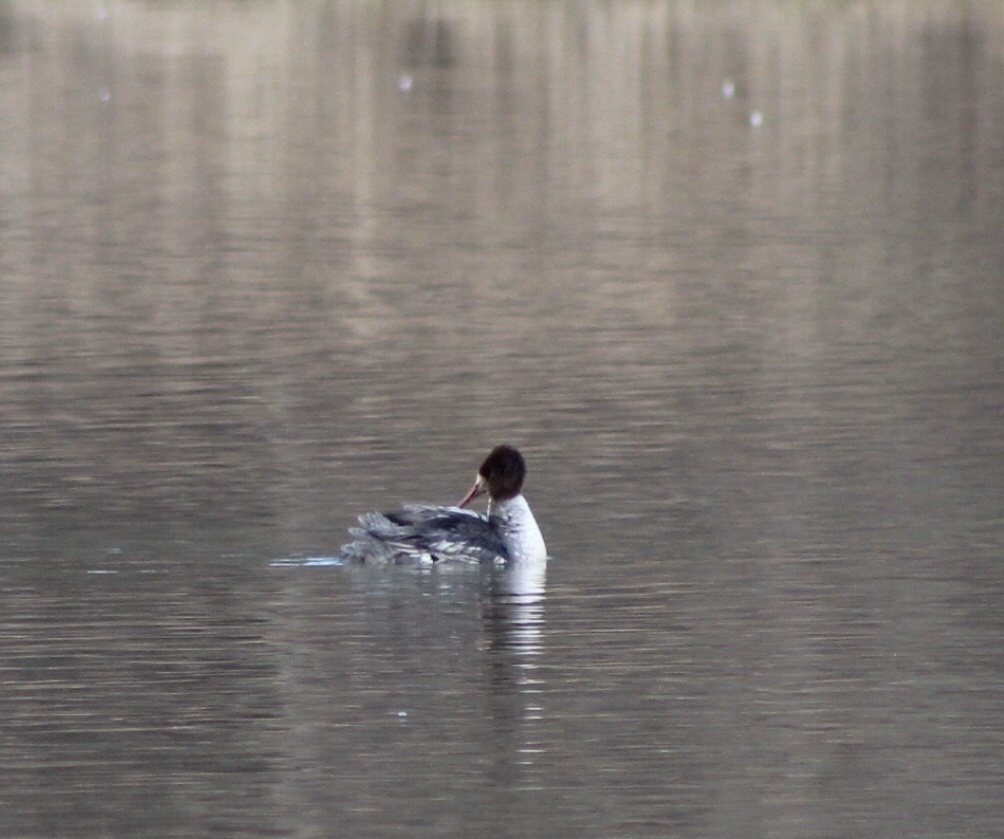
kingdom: Animalia
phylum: Chordata
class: Aves
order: Anseriformes
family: Anatidae
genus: Mergus
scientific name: Mergus merganser
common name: Common merganser
